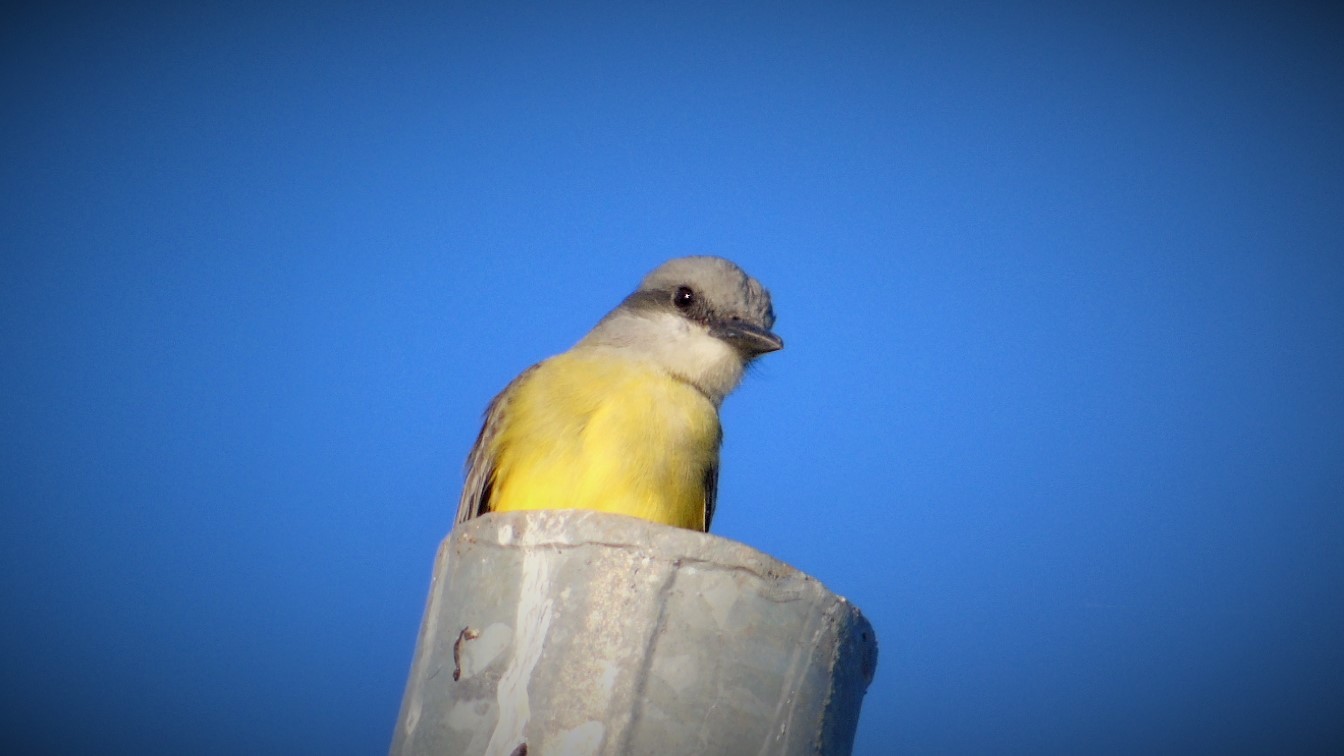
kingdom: Animalia
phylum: Chordata
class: Aves
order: Passeriformes
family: Tyrannidae
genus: Tyrannus
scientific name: Tyrannus melancholicus
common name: Tropical kingbird
